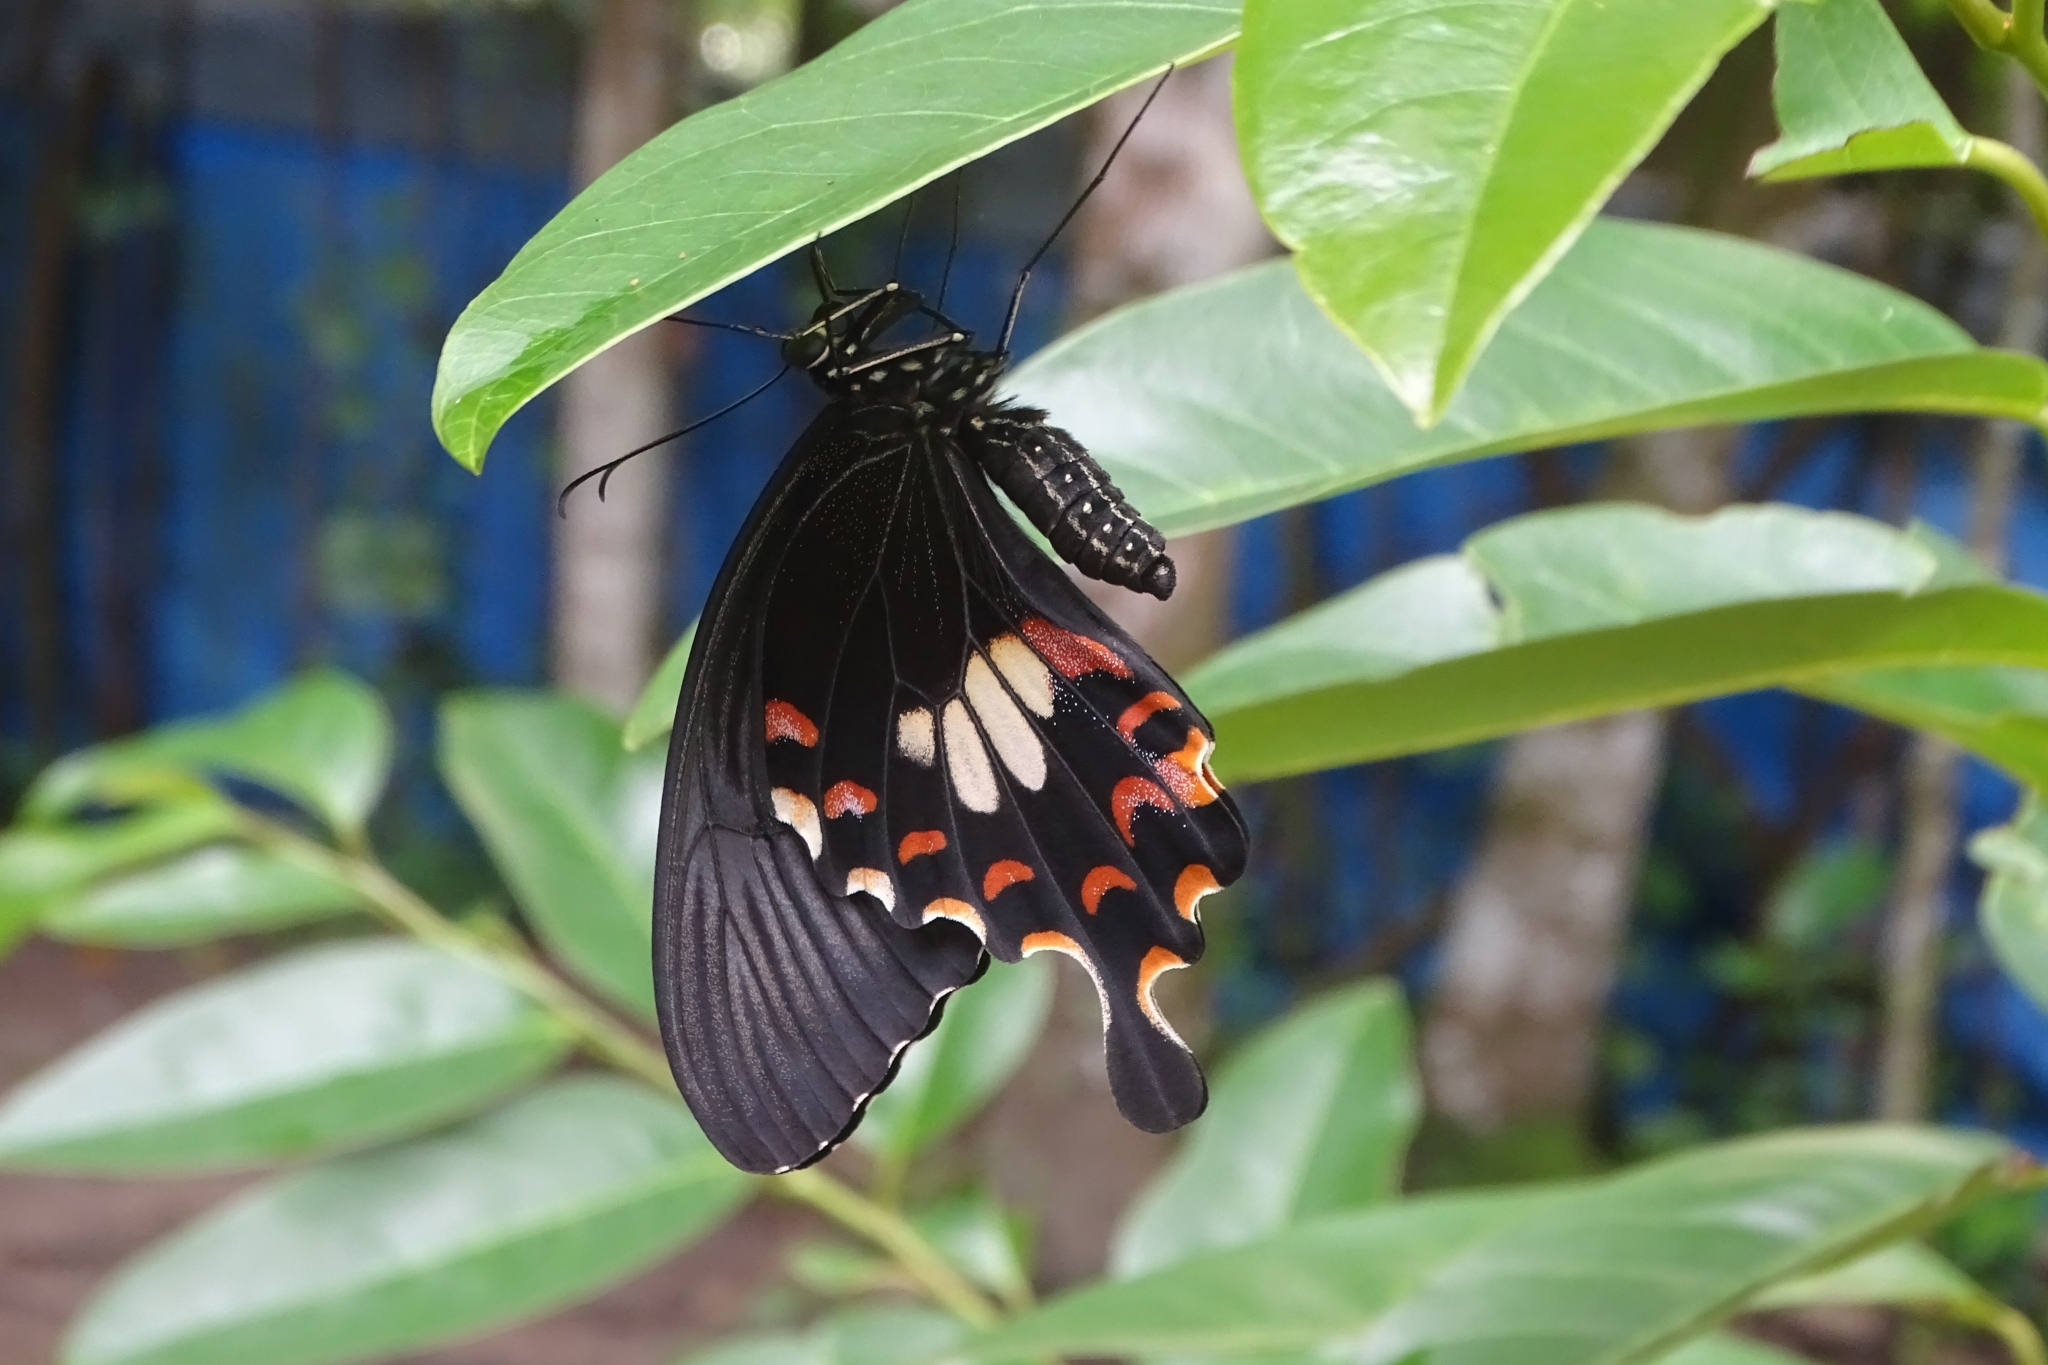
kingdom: Animalia
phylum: Arthropoda
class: Insecta
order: Lepidoptera
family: Papilionidae
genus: Papilio
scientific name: Papilio polytes
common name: Common mormon
